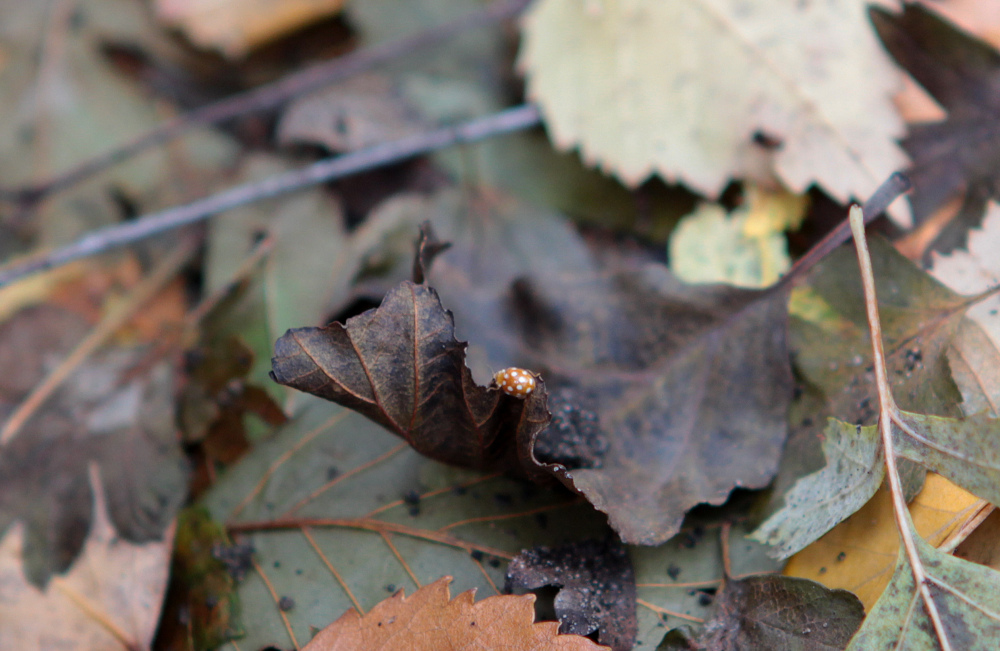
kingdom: Animalia
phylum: Arthropoda
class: Insecta
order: Coleoptera
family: Coccinellidae
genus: Vibidia
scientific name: Vibidia duodecimguttata
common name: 12-spot ladybird
